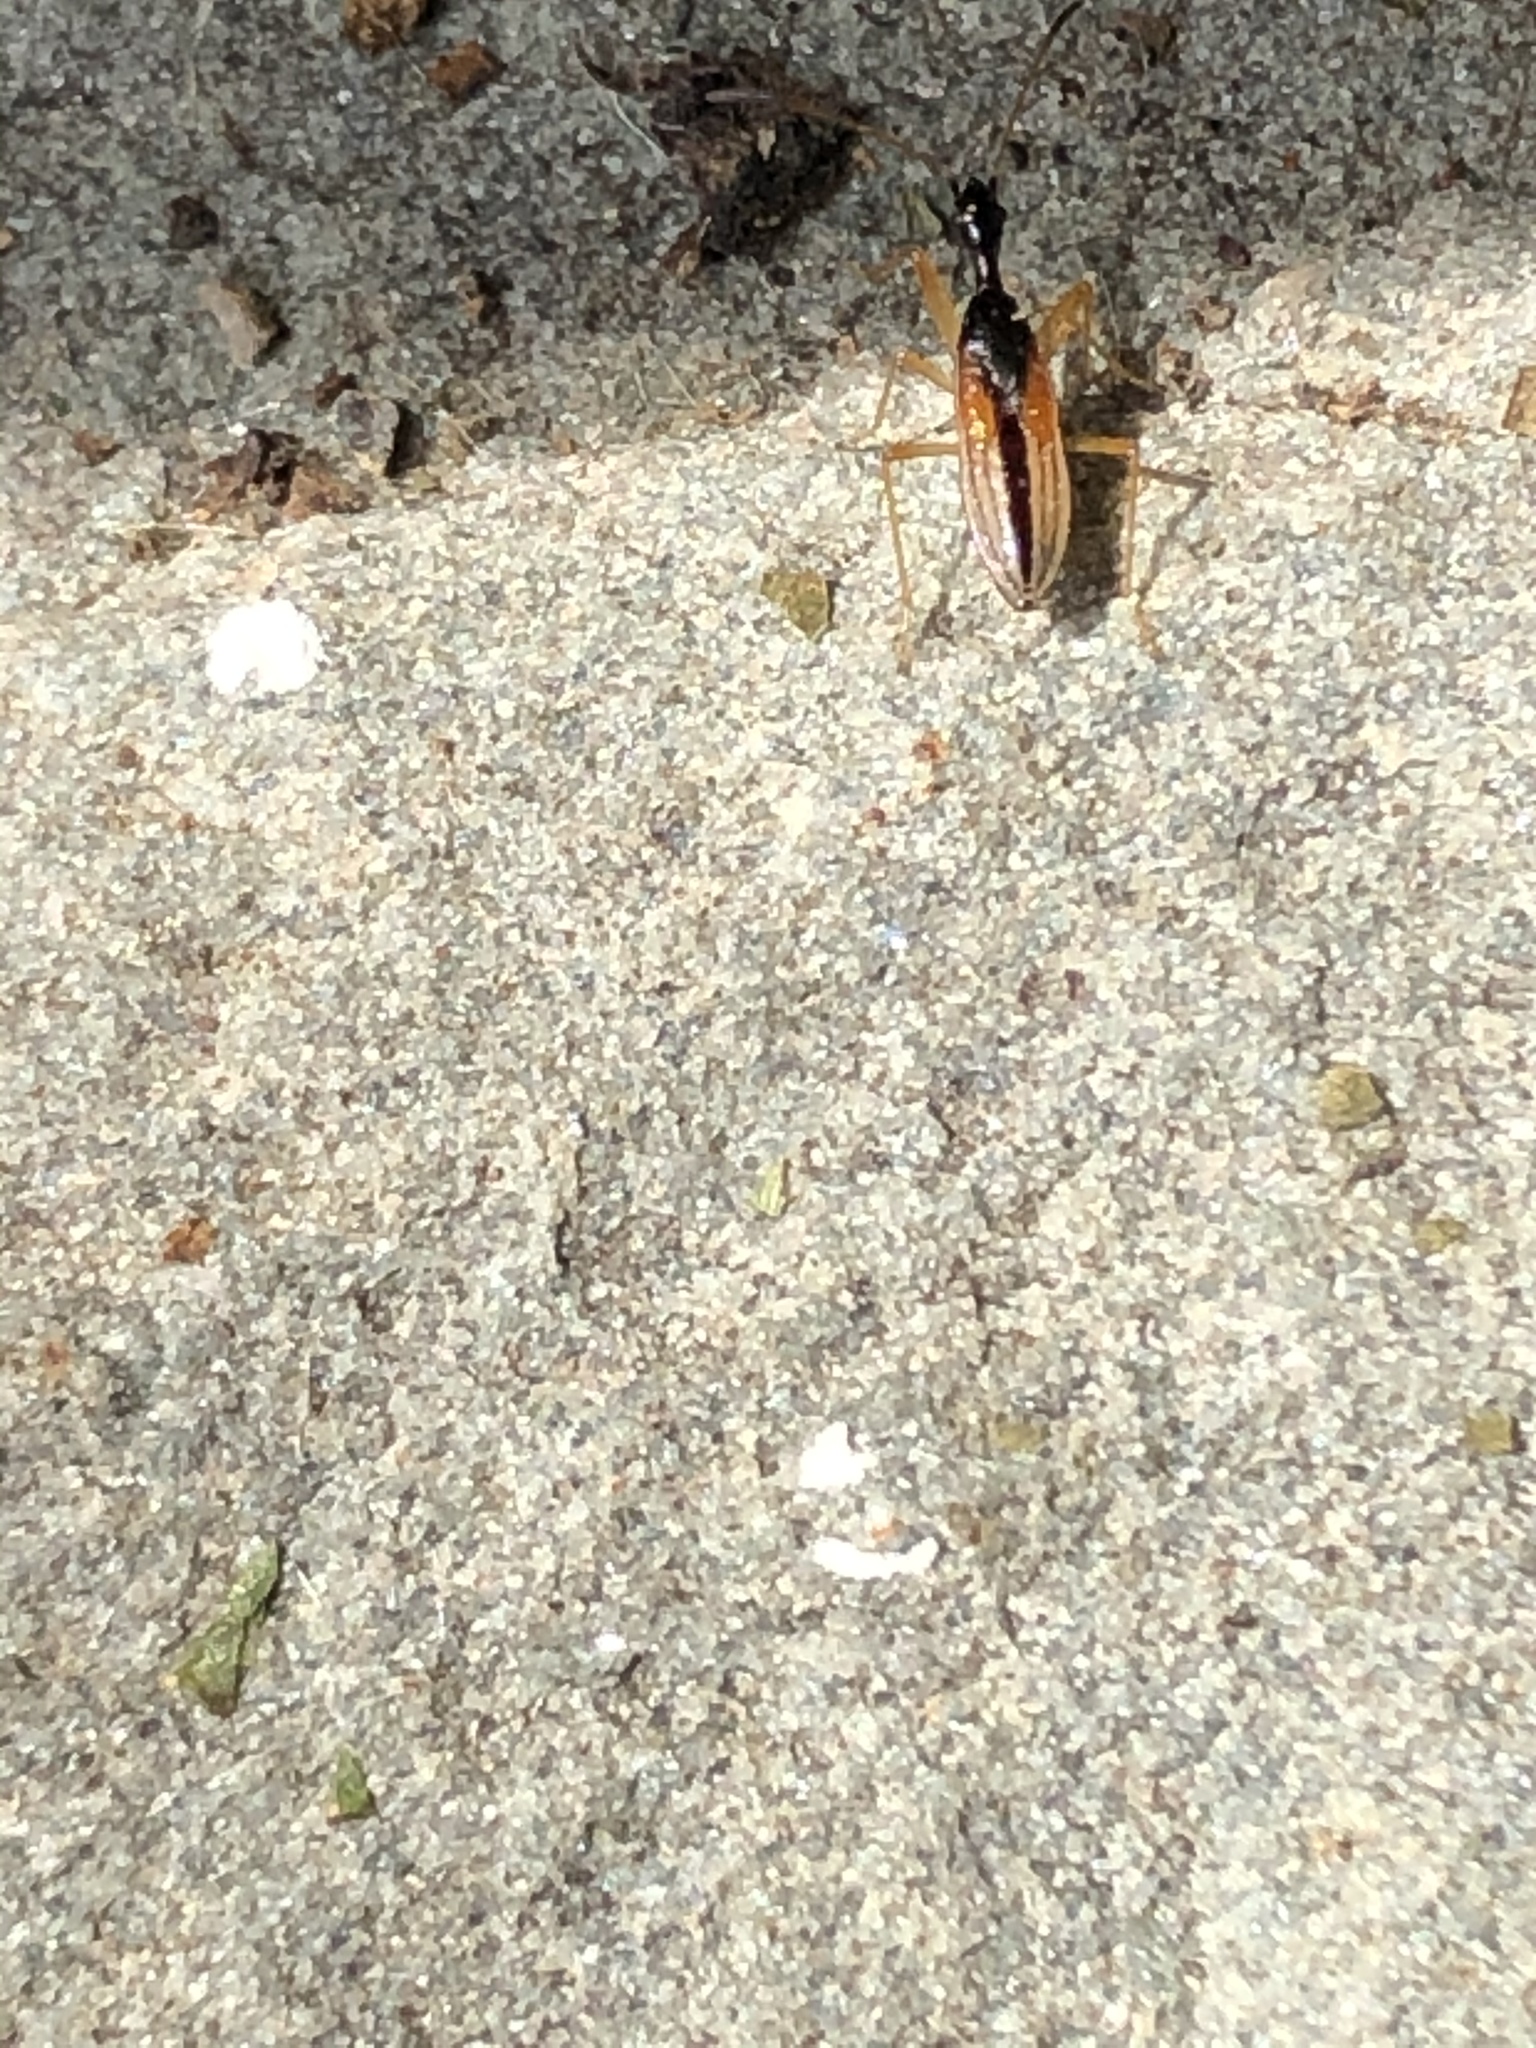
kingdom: Animalia
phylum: Arthropoda
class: Insecta
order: Hemiptera
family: Rhyparochromidae
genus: Myodocha
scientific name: Myodocha serripes
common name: Long-necked seed bug
